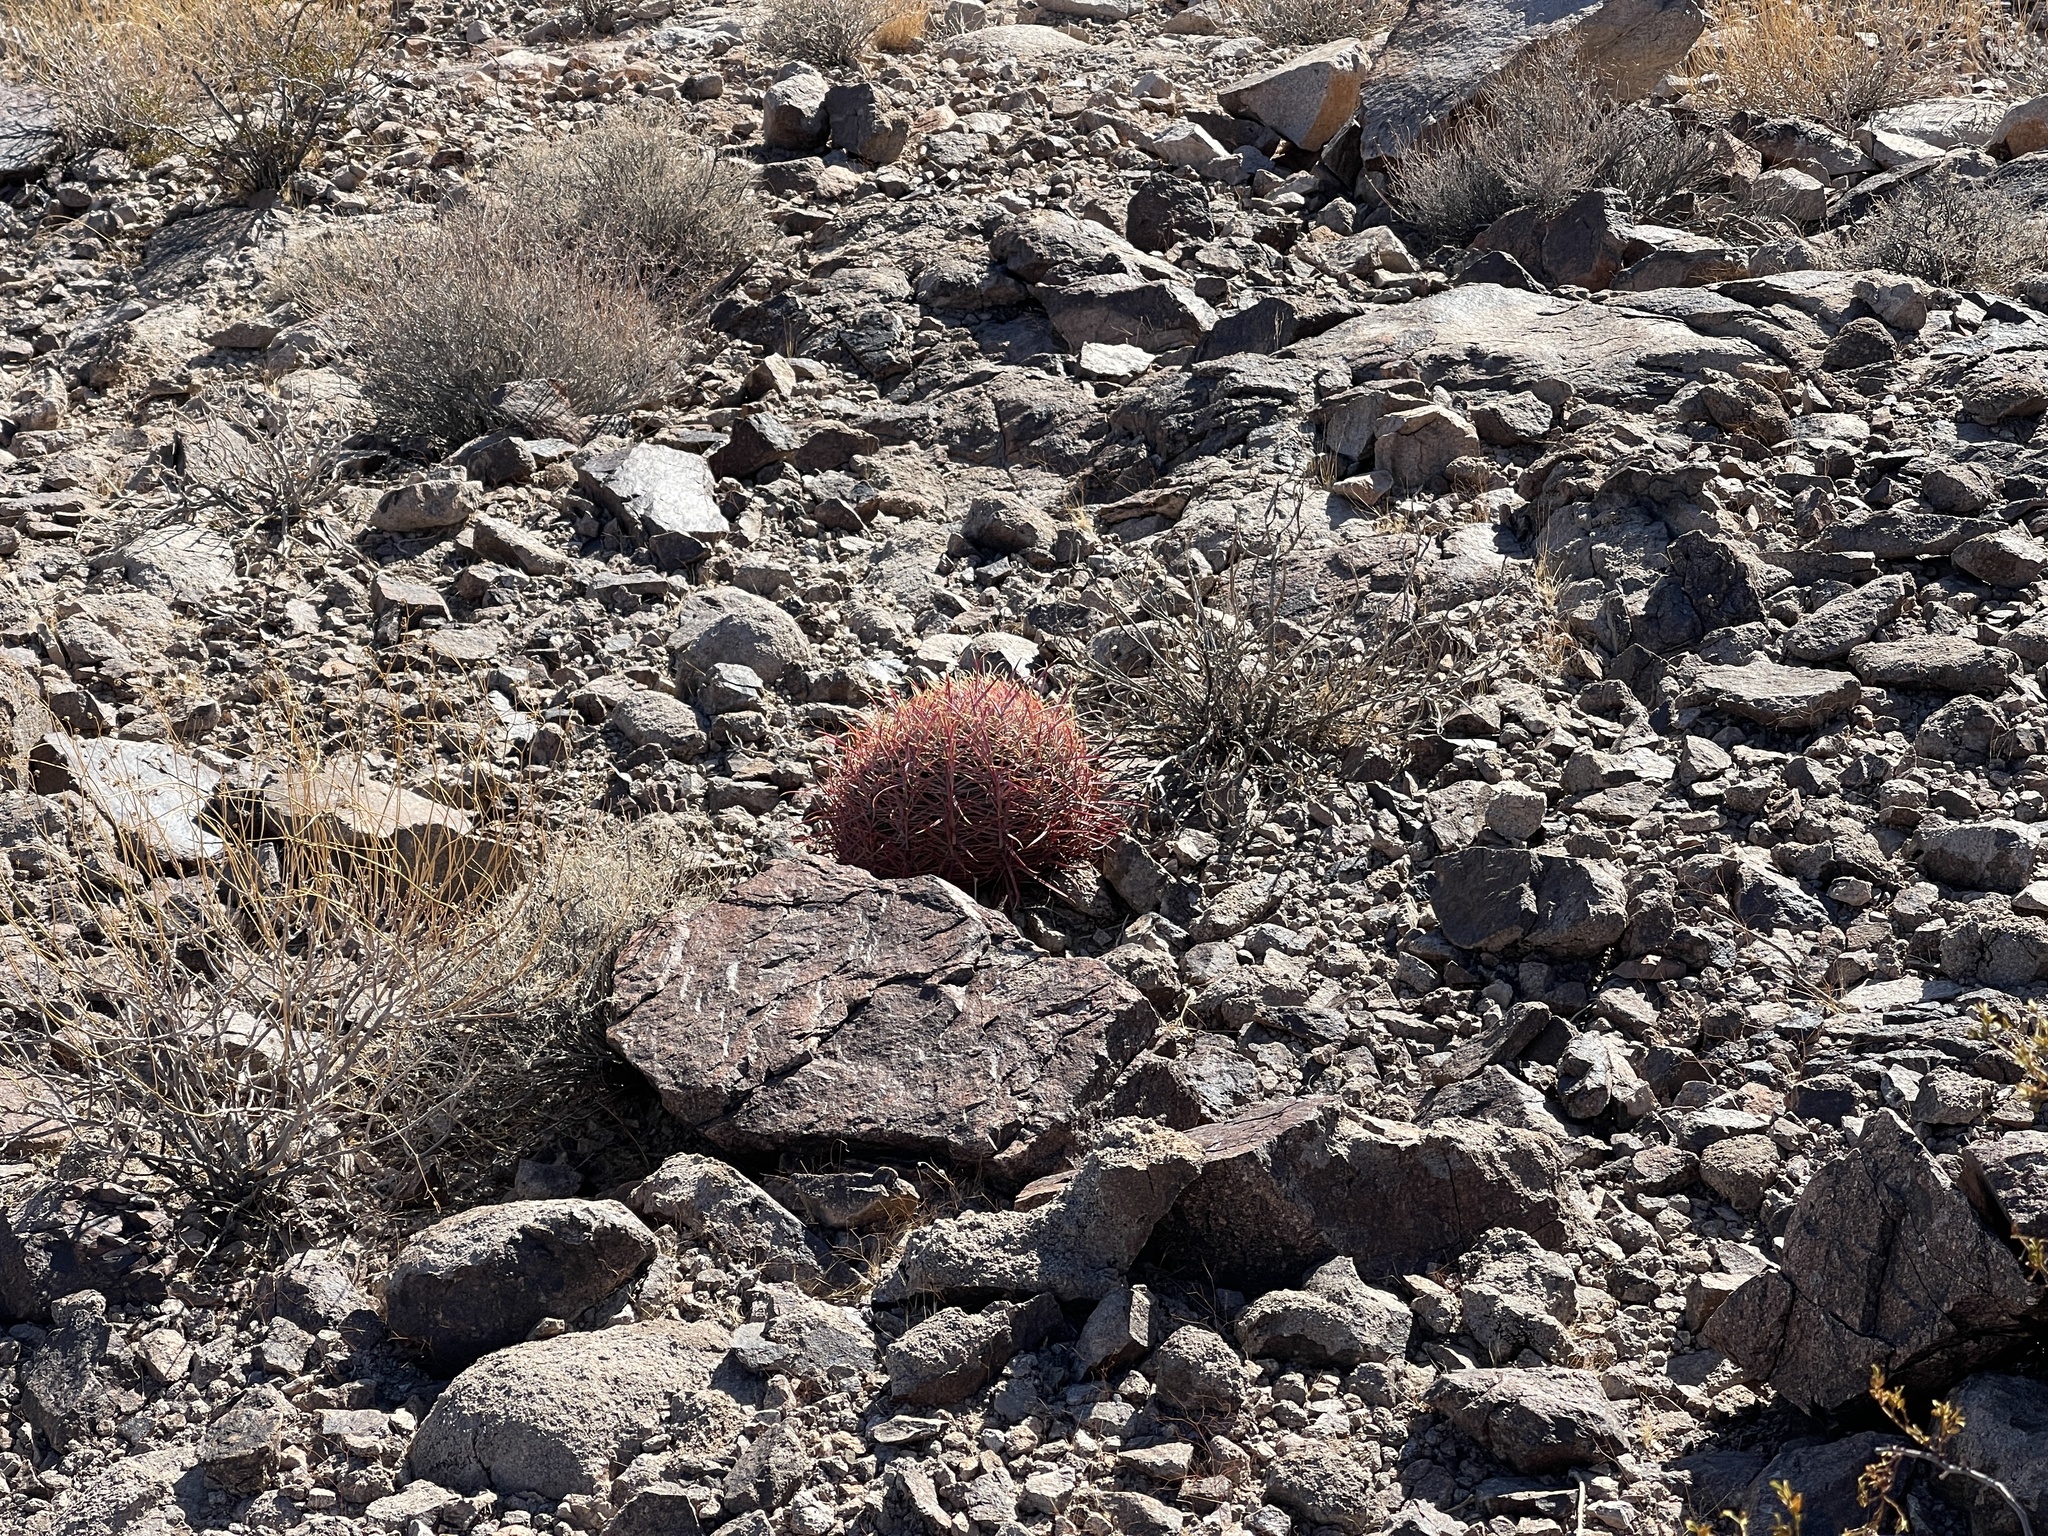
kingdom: Plantae
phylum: Tracheophyta
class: Magnoliopsida
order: Caryophyllales
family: Cactaceae
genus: Ferocactus
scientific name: Ferocactus cylindraceus
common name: California barrel cactus
